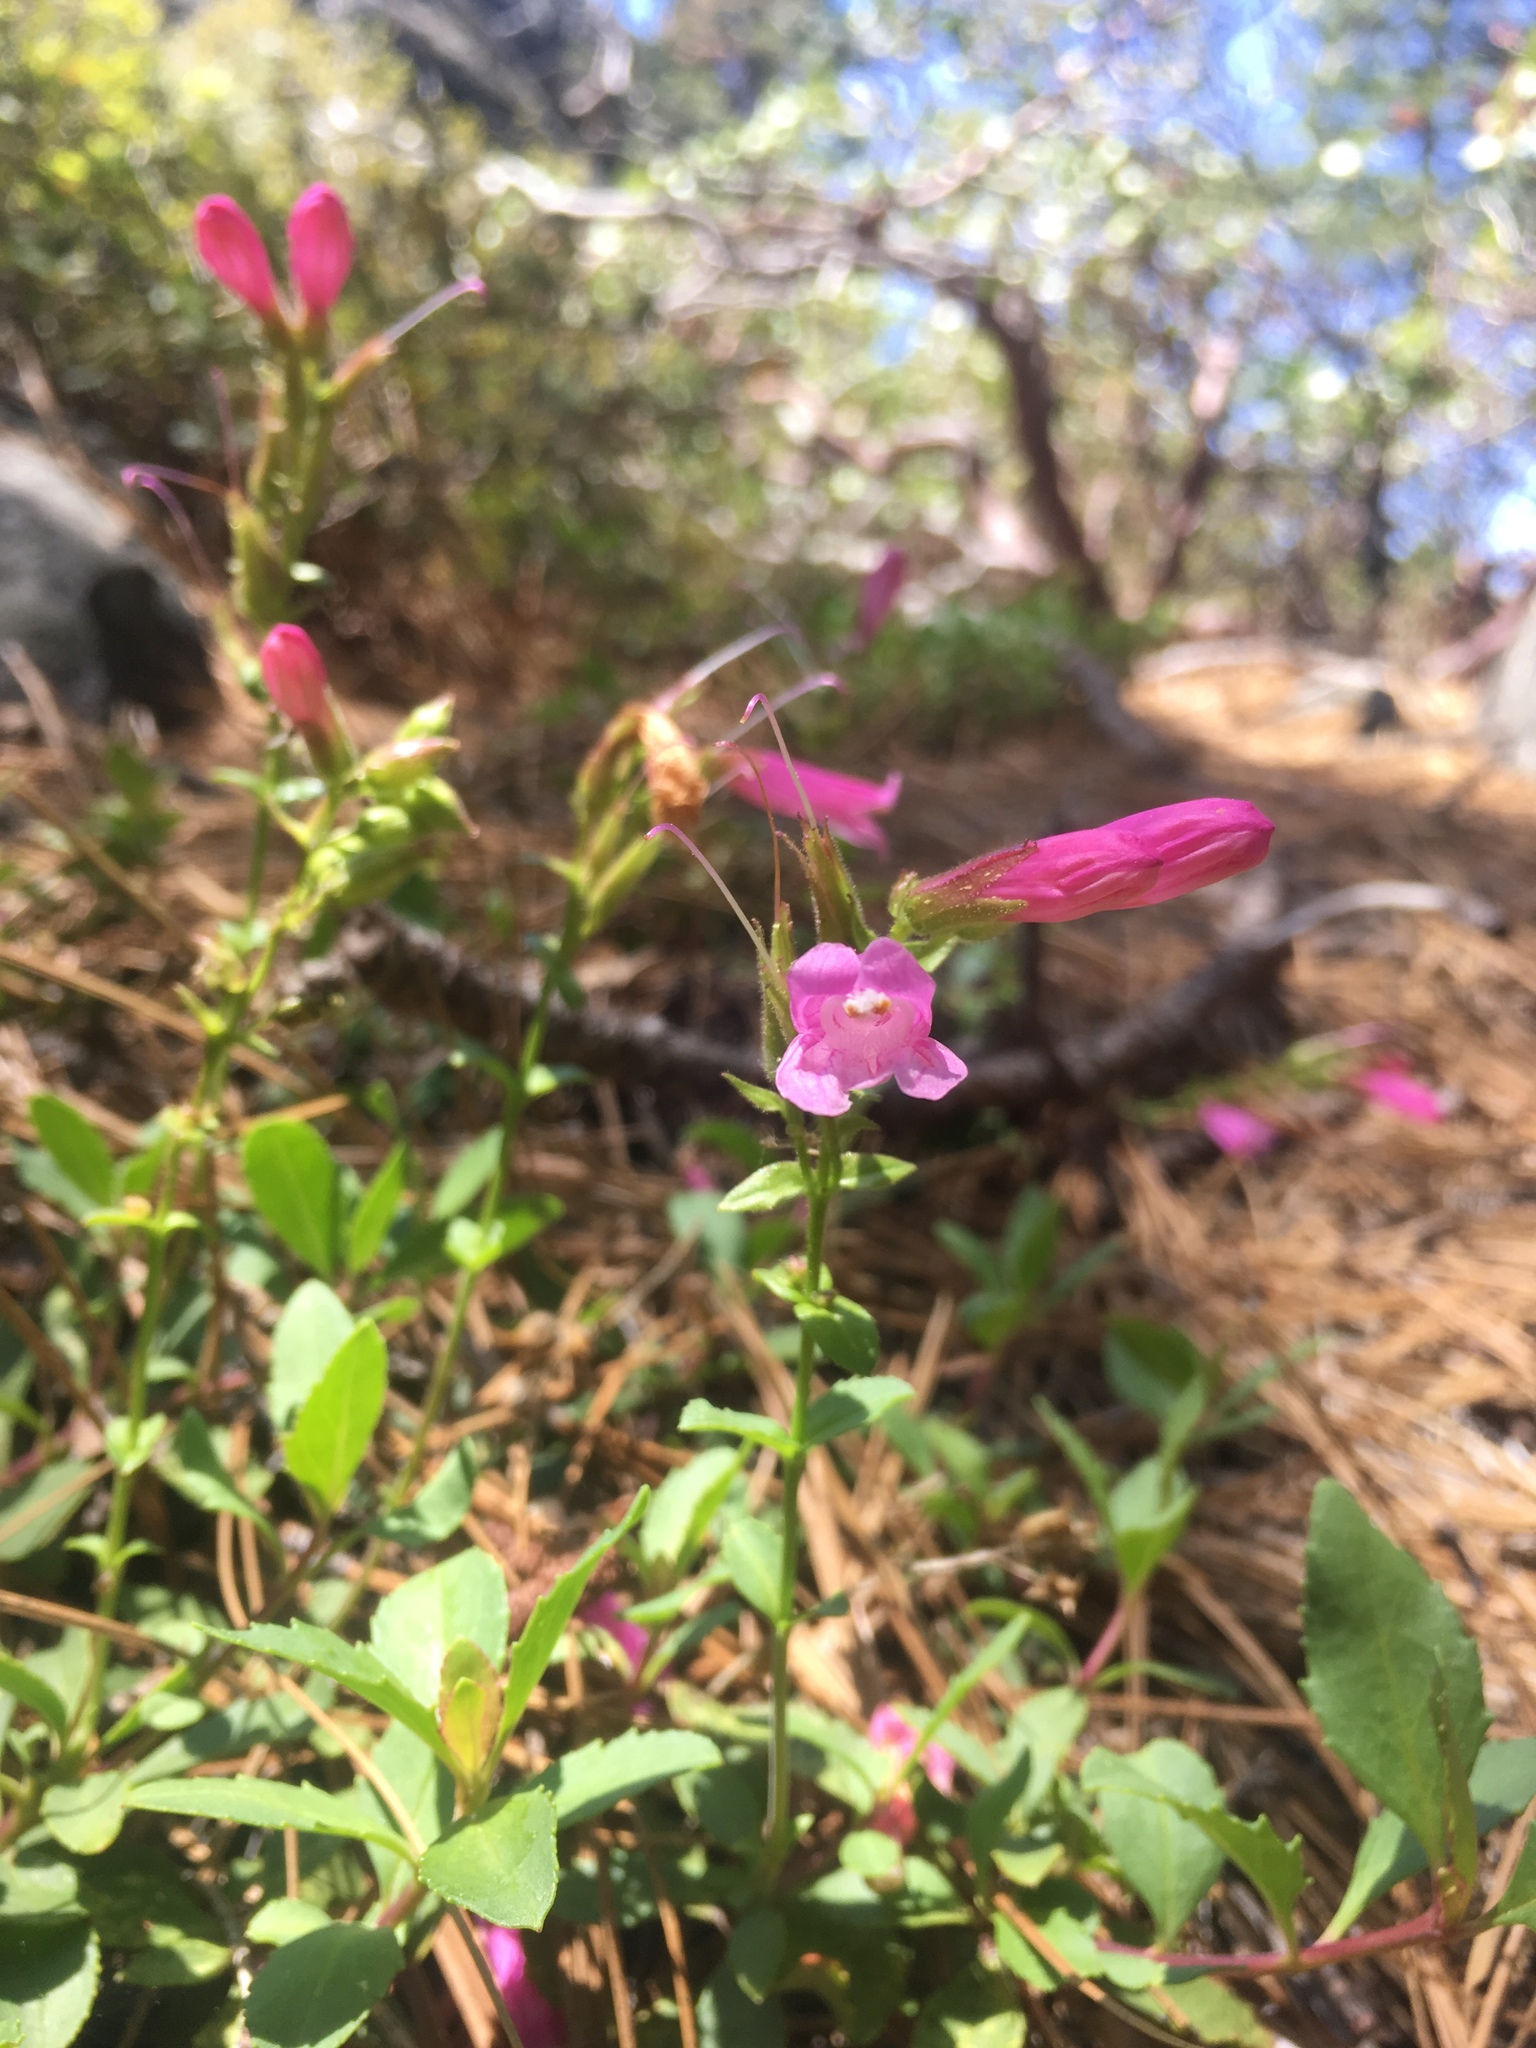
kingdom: Plantae
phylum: Tracheophyta
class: Magnoliopsida
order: Lamiales
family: Plantaginaceae
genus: Penstemon
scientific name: Penstemon newberryi
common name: Mountain-pride
